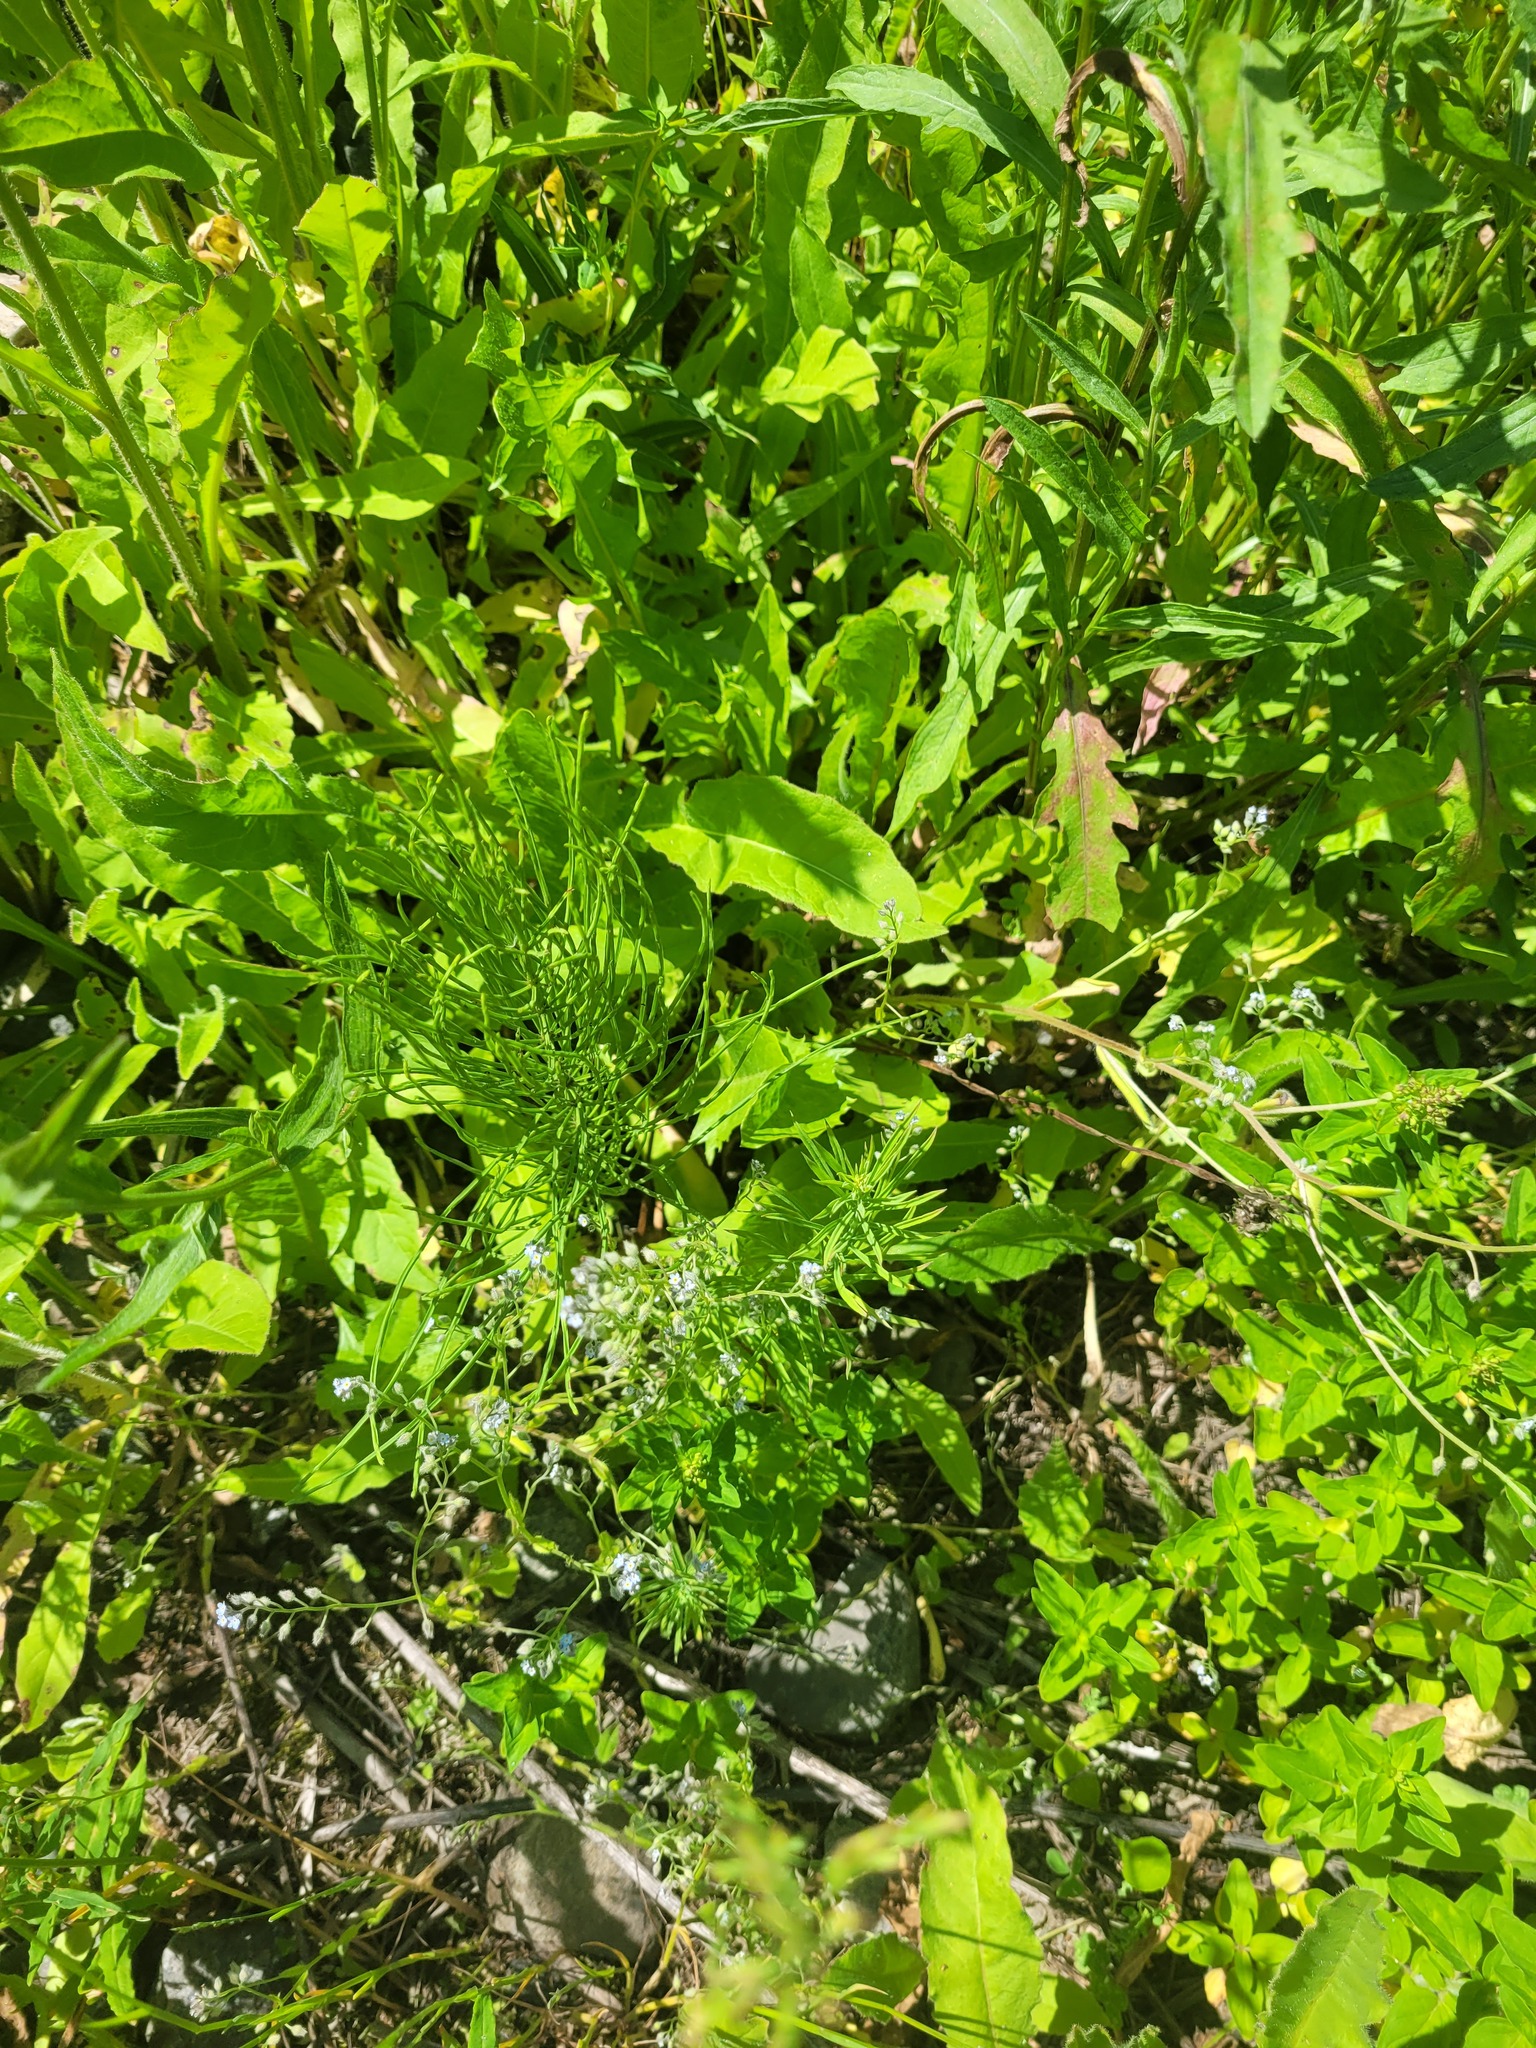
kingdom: Plantae
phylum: Tracheophyta
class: Magnoliopsida
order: Boraginales
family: Boraginaceae
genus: Myosotis
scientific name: Myosotis arvensis
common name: Field forget-me-not
